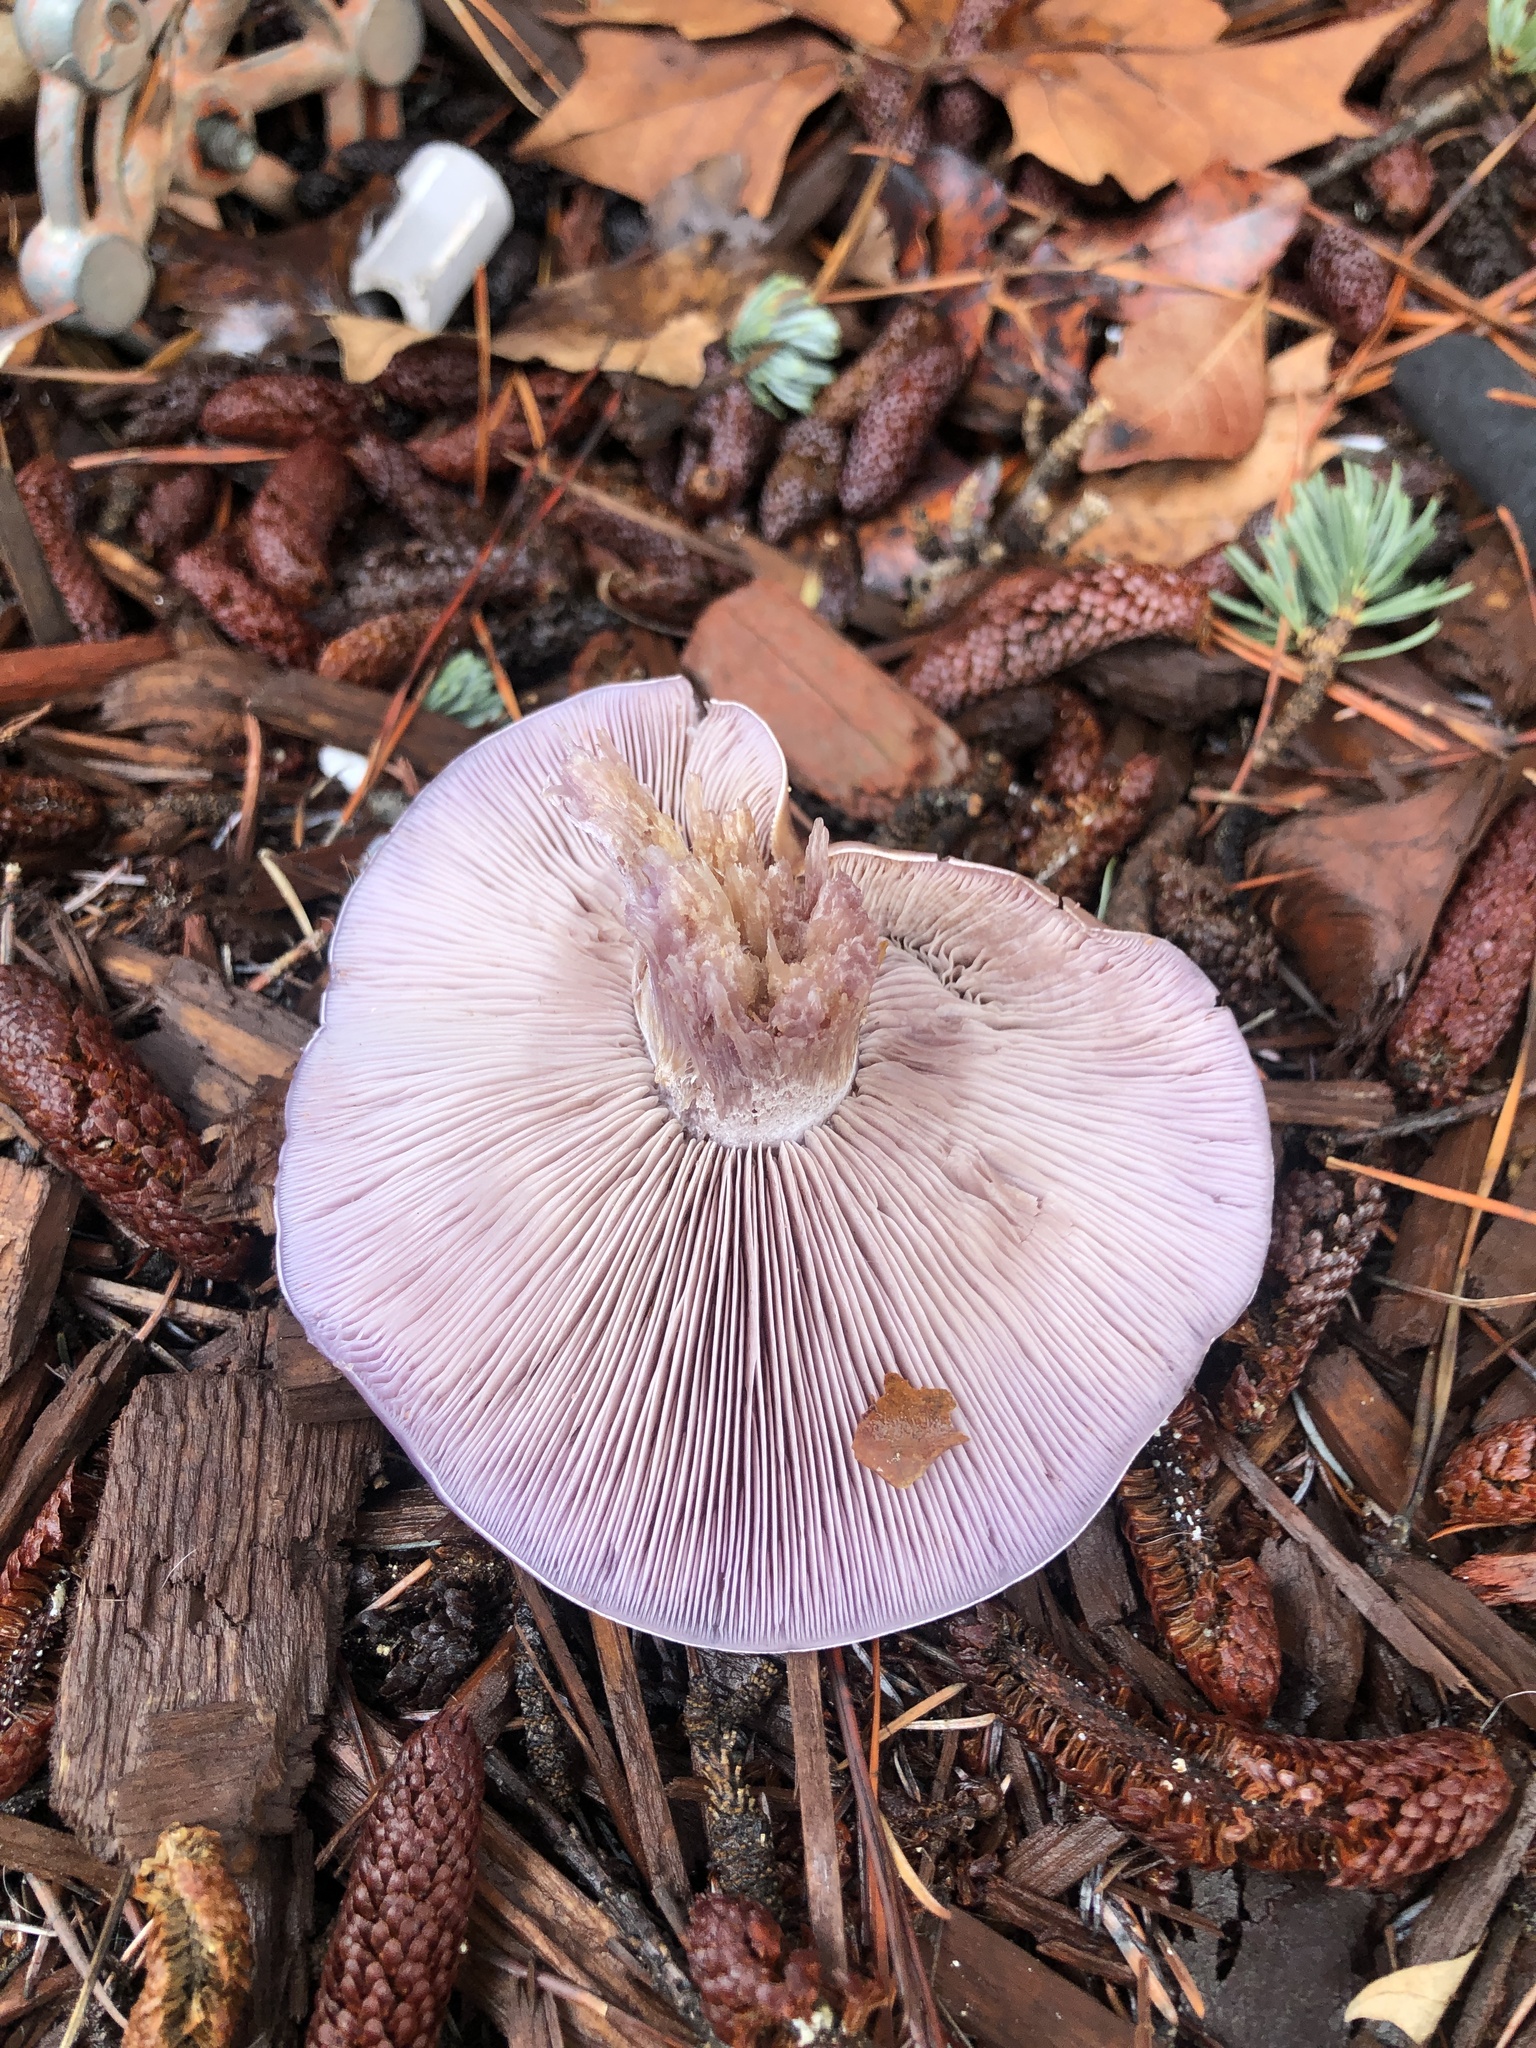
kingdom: Fungi
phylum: Basidiomycota
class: Agaricomycetes
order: Agaricales
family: Tricholomataceae
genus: Collybia
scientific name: Collybia
